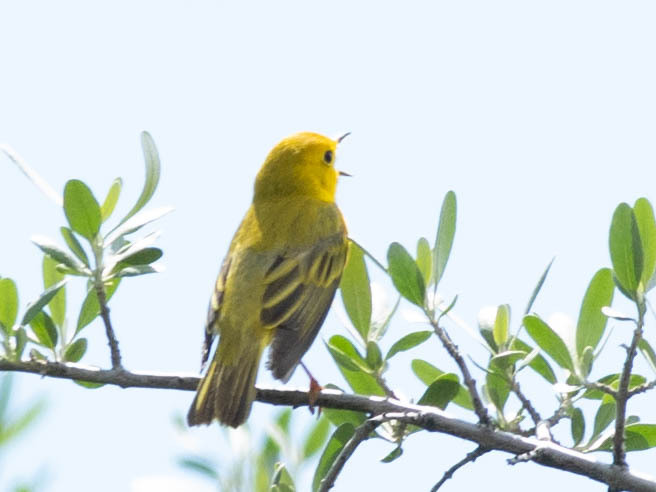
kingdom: Animalia
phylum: Chordata
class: Aves
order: Passeriformes
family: Parulidae
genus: Setophaga
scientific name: Setophaga petechia
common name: Yellow warbler
